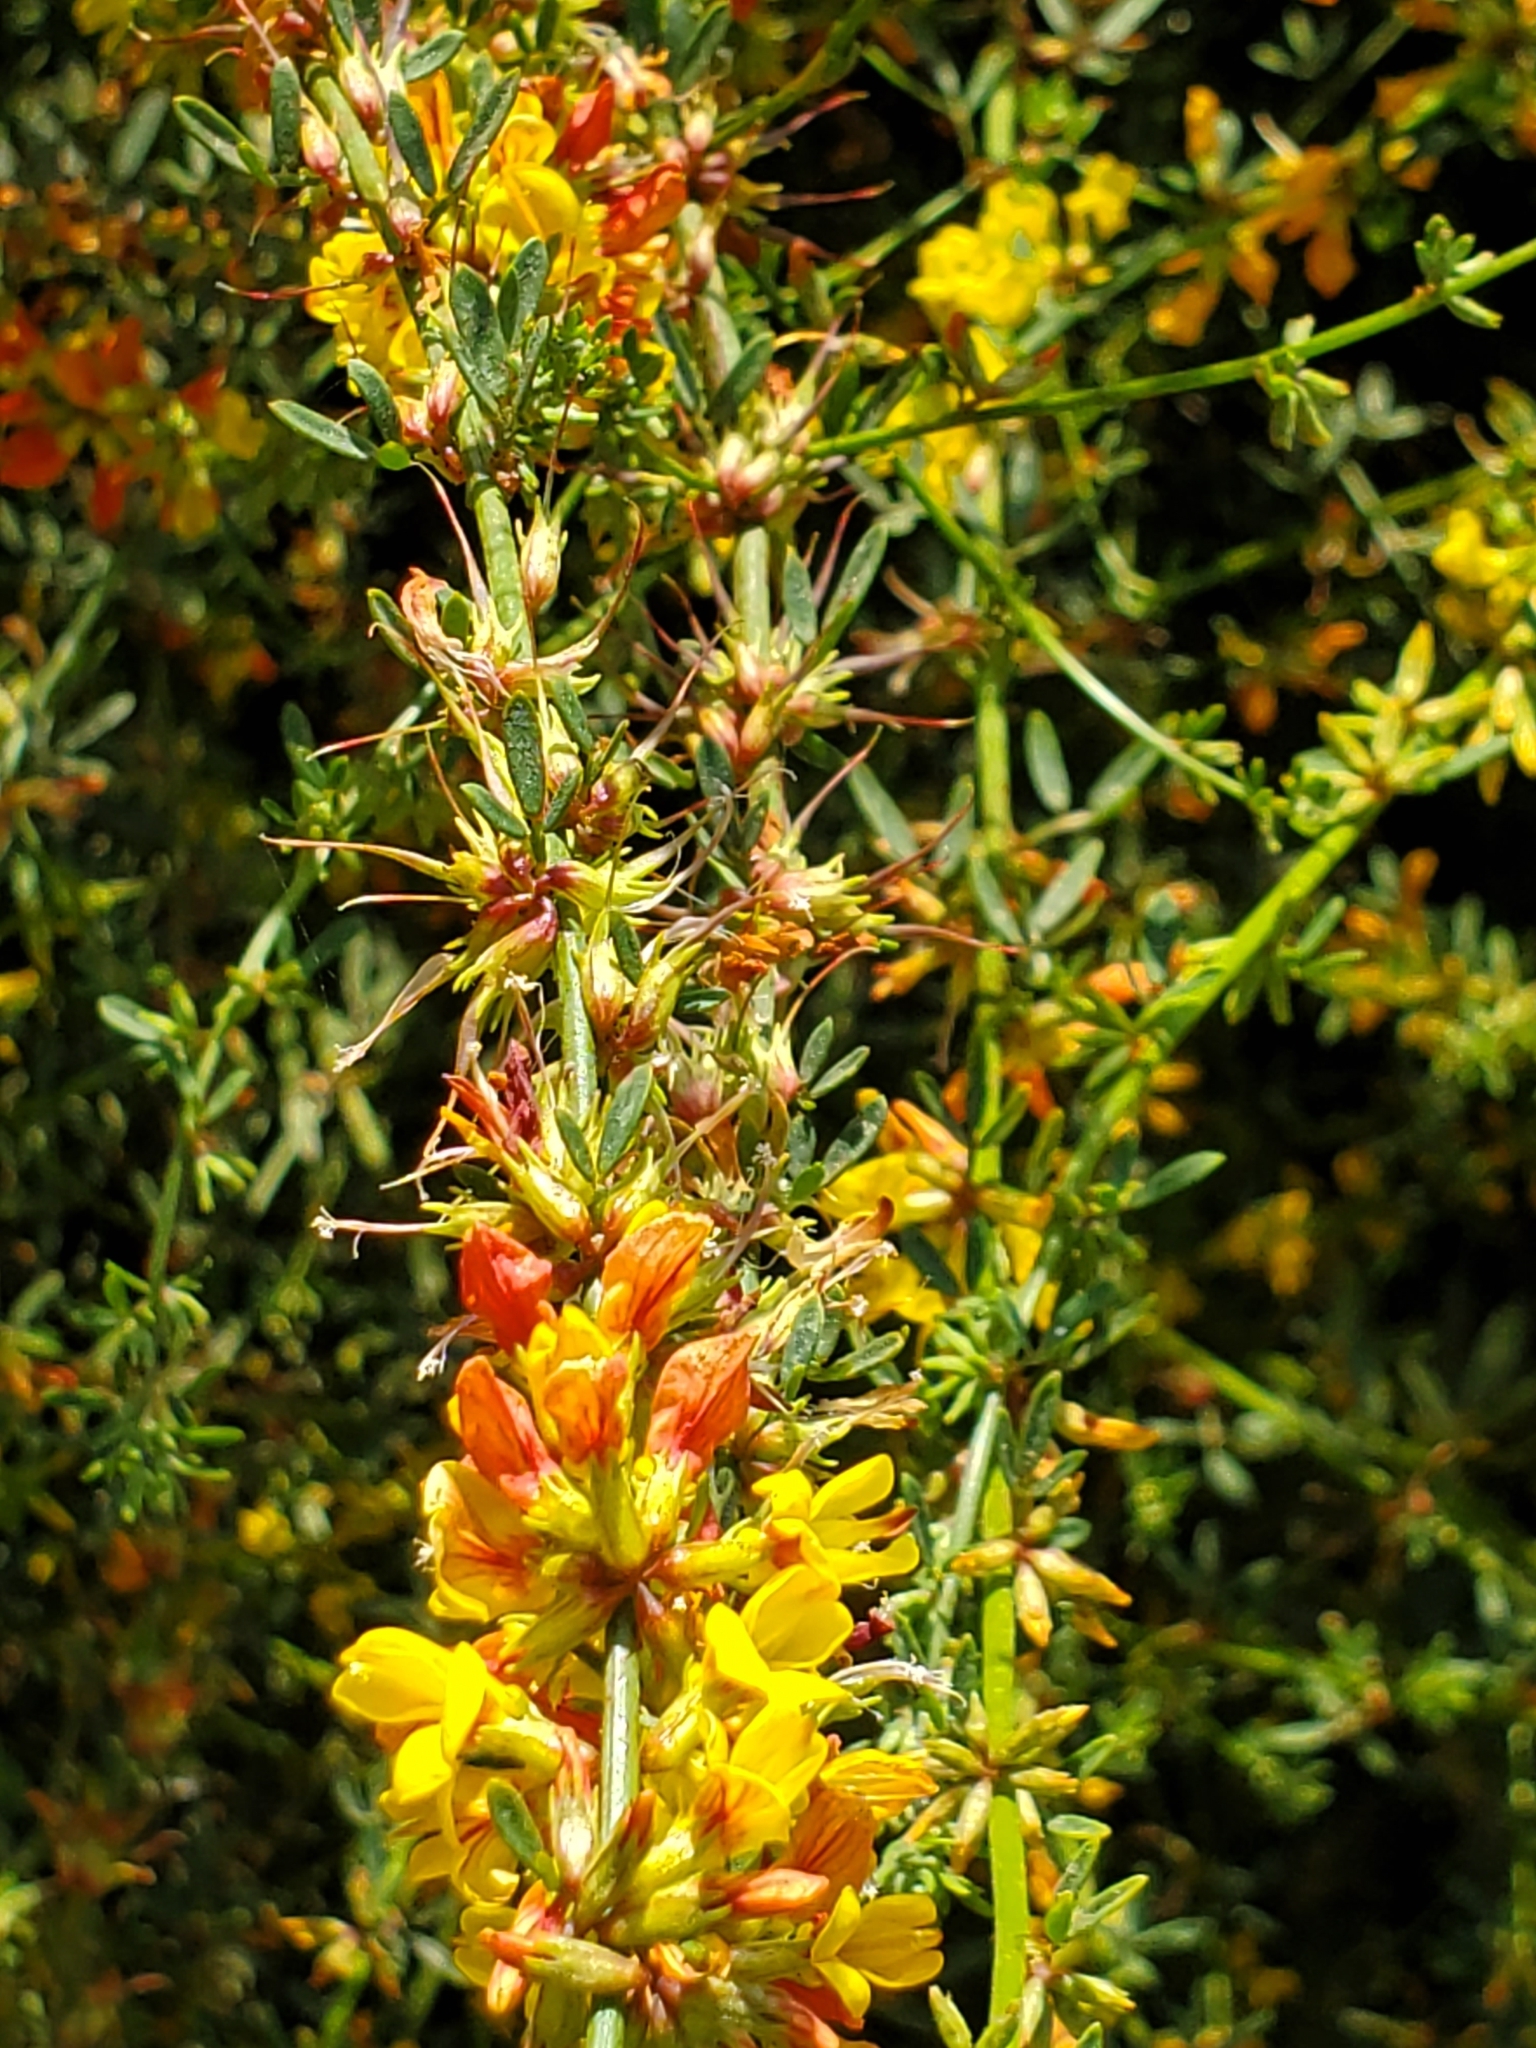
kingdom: Plantae
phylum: Tracheophyta
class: Magnoliopsida
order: Fabales
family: Fabaceae
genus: Acmispon
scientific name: Acmispon glaber
